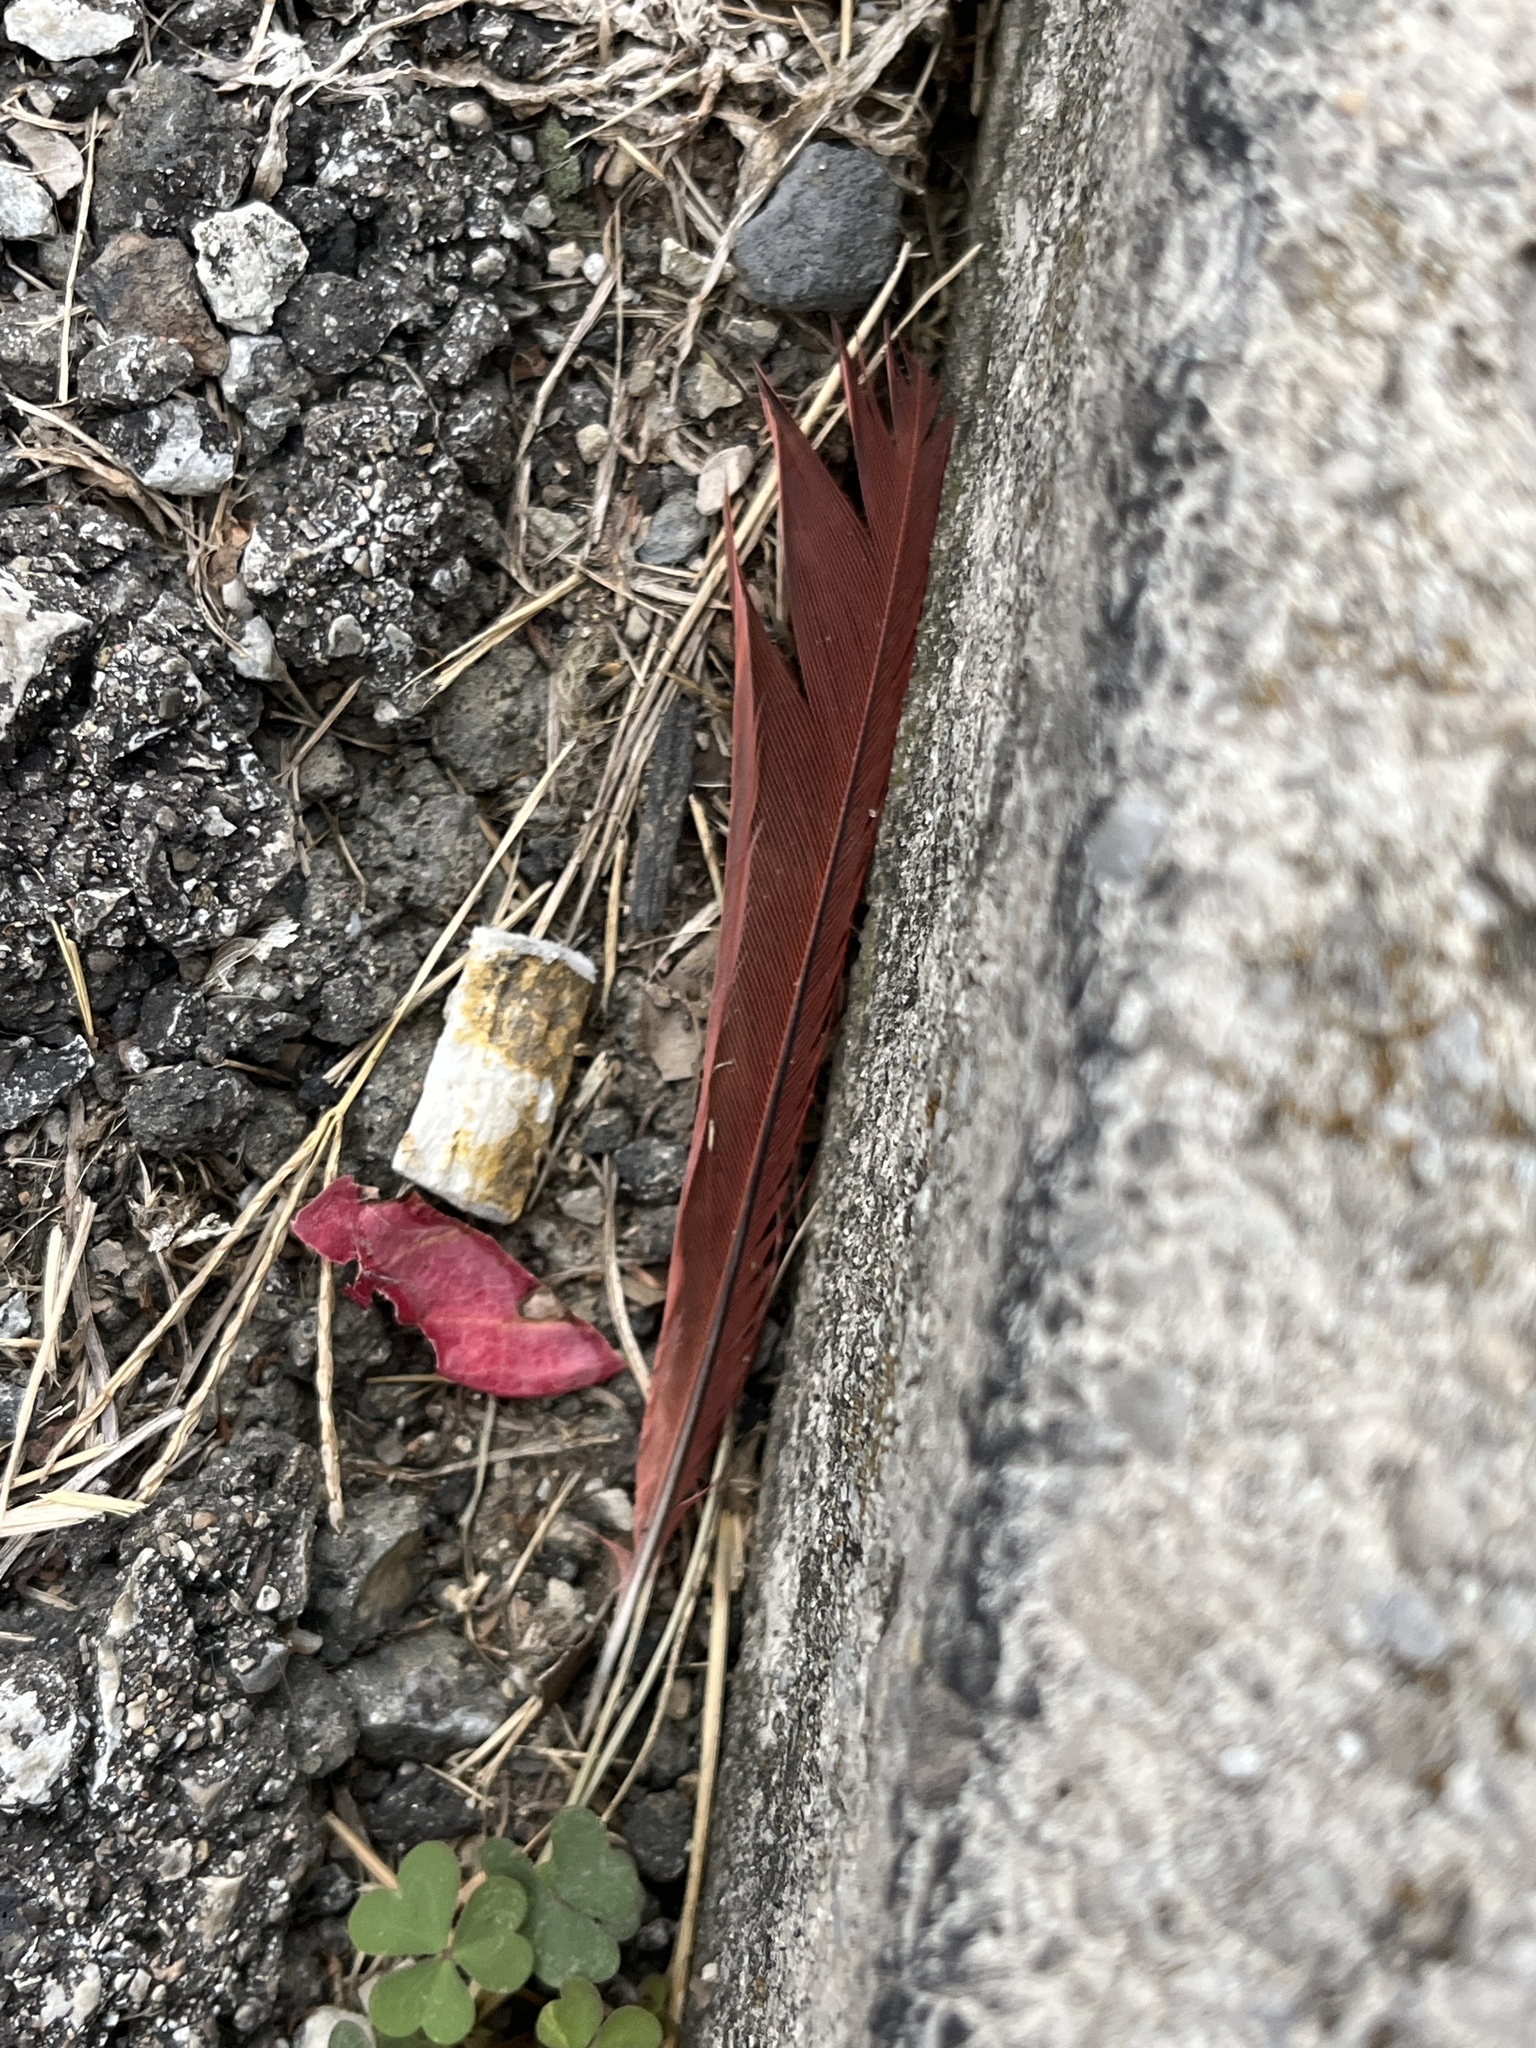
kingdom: Animalia
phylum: Chordata
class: Aves
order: Passeriformes
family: Cardinalidae
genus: Cardinalis
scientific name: Cardinalis cardinalis
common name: Northern cardinal
